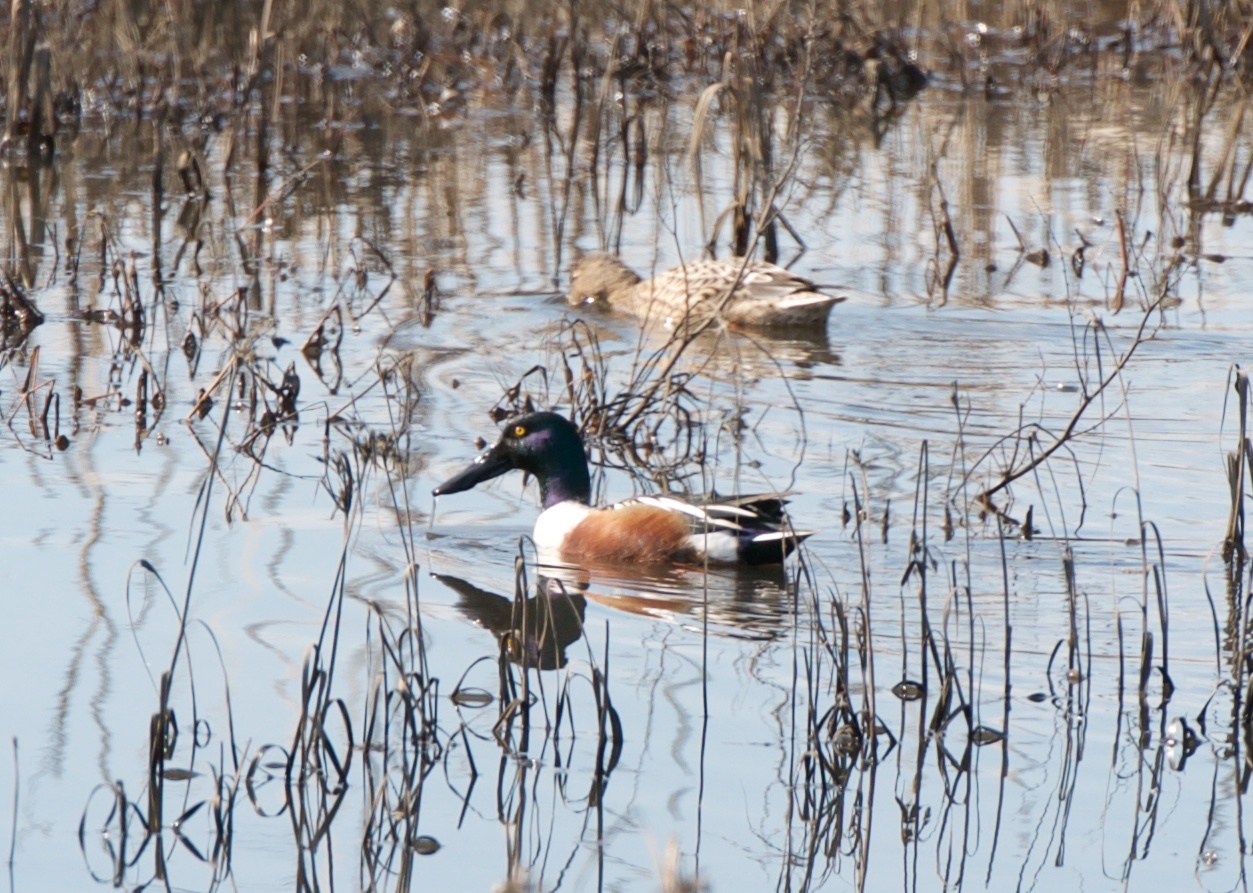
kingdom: Animalia
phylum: Chordata
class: Aves
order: Anseriformes
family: Anatidae
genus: Spatula
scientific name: Spatula clypeata
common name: Northern shoveler
